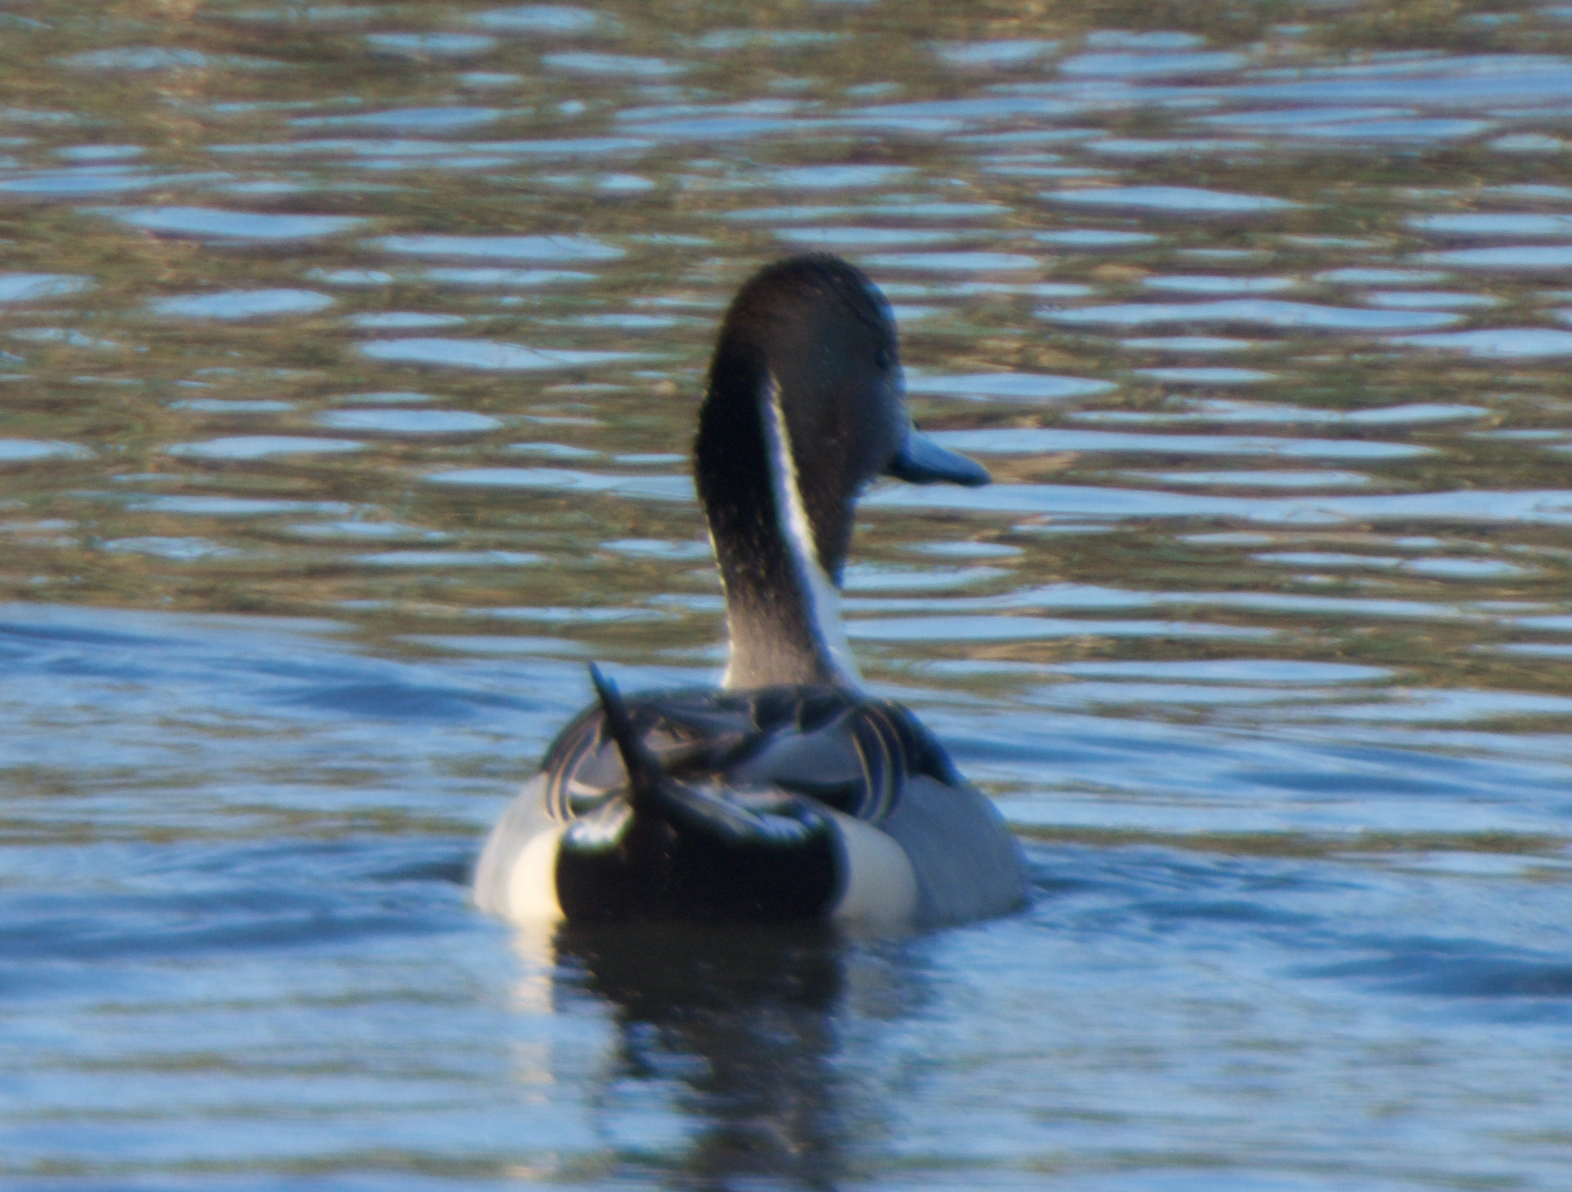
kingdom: Animalia
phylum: Chordata
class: Aves
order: Anseriformes
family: Anatidae
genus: Anas
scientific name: Anas acuta
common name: Northern pintail
